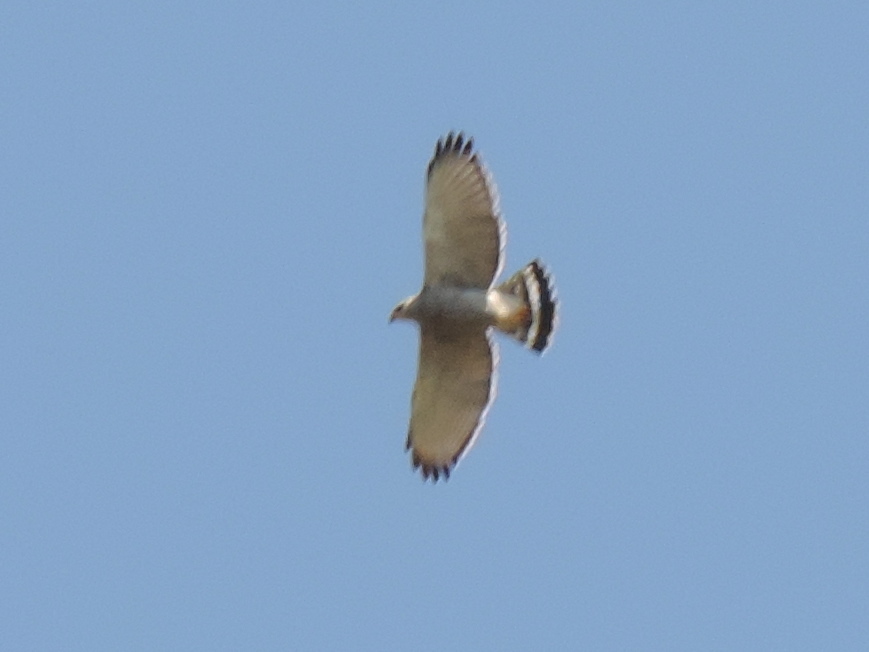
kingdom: Animalia
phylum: Chordata
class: Aves
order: Accipitriformes
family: Accipitridae
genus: Buteo
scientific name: Buteo nitidus
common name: Grey-lined hawk
